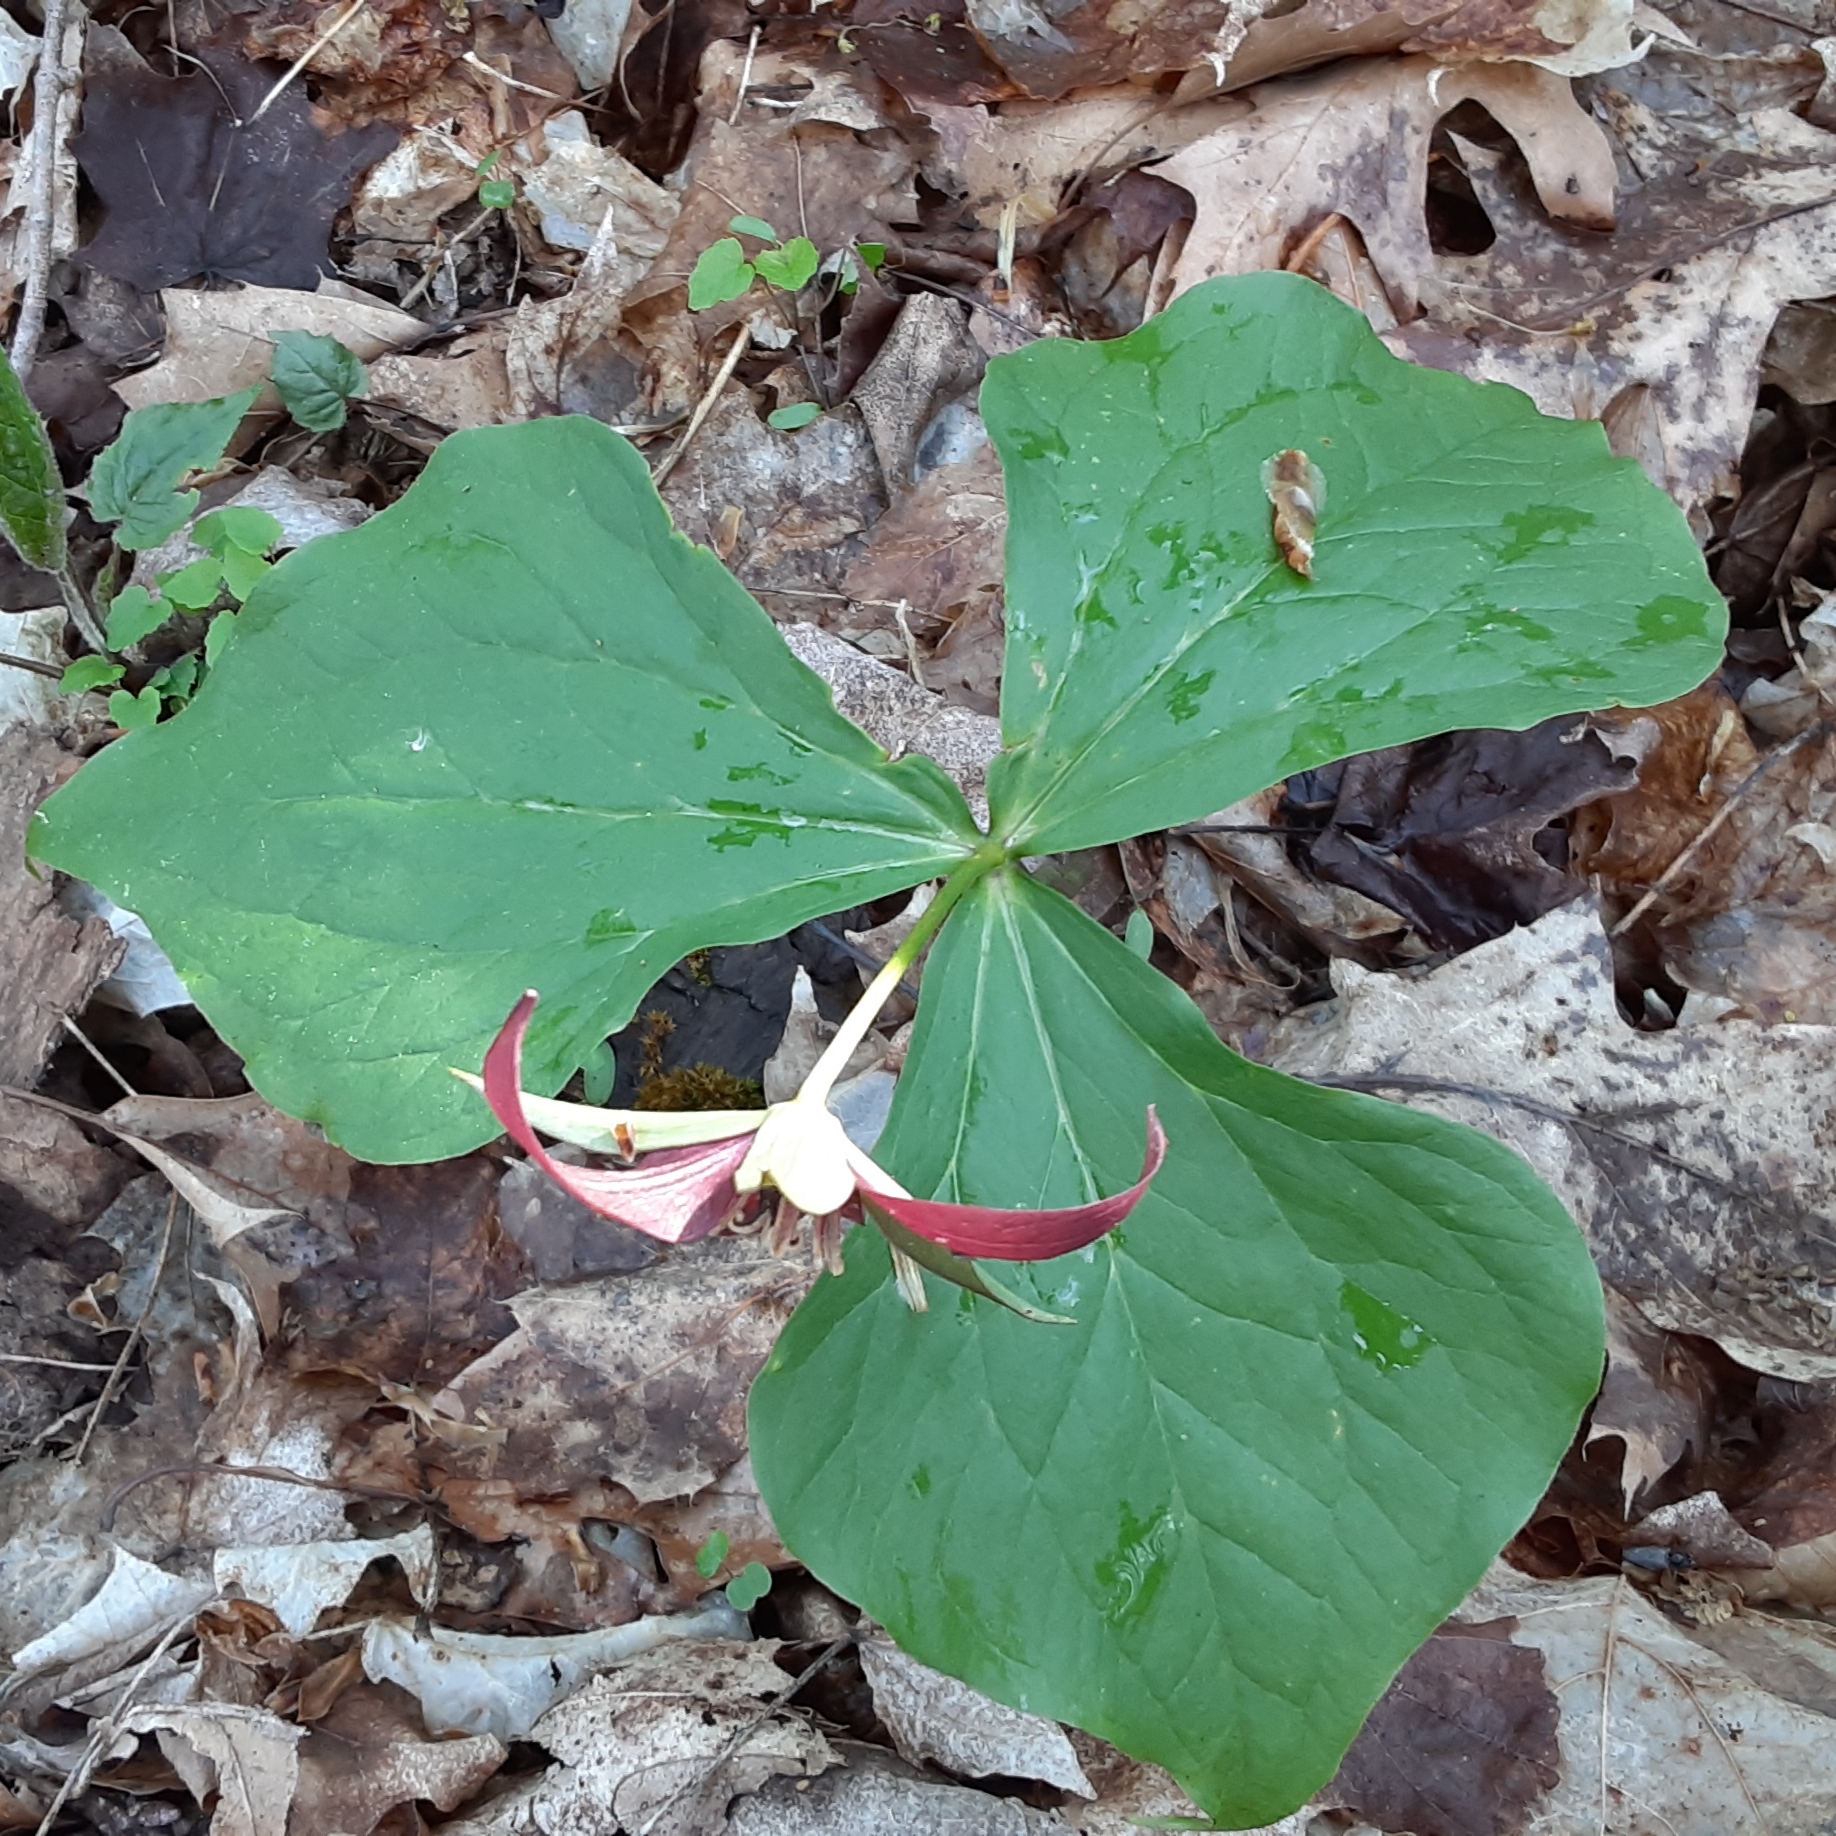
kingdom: Plantae
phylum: Tracheophyta
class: Liliopsida
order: Liliales
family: Melanthiaceae
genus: Trillium
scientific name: Trillium erectum
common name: Purple trillium
